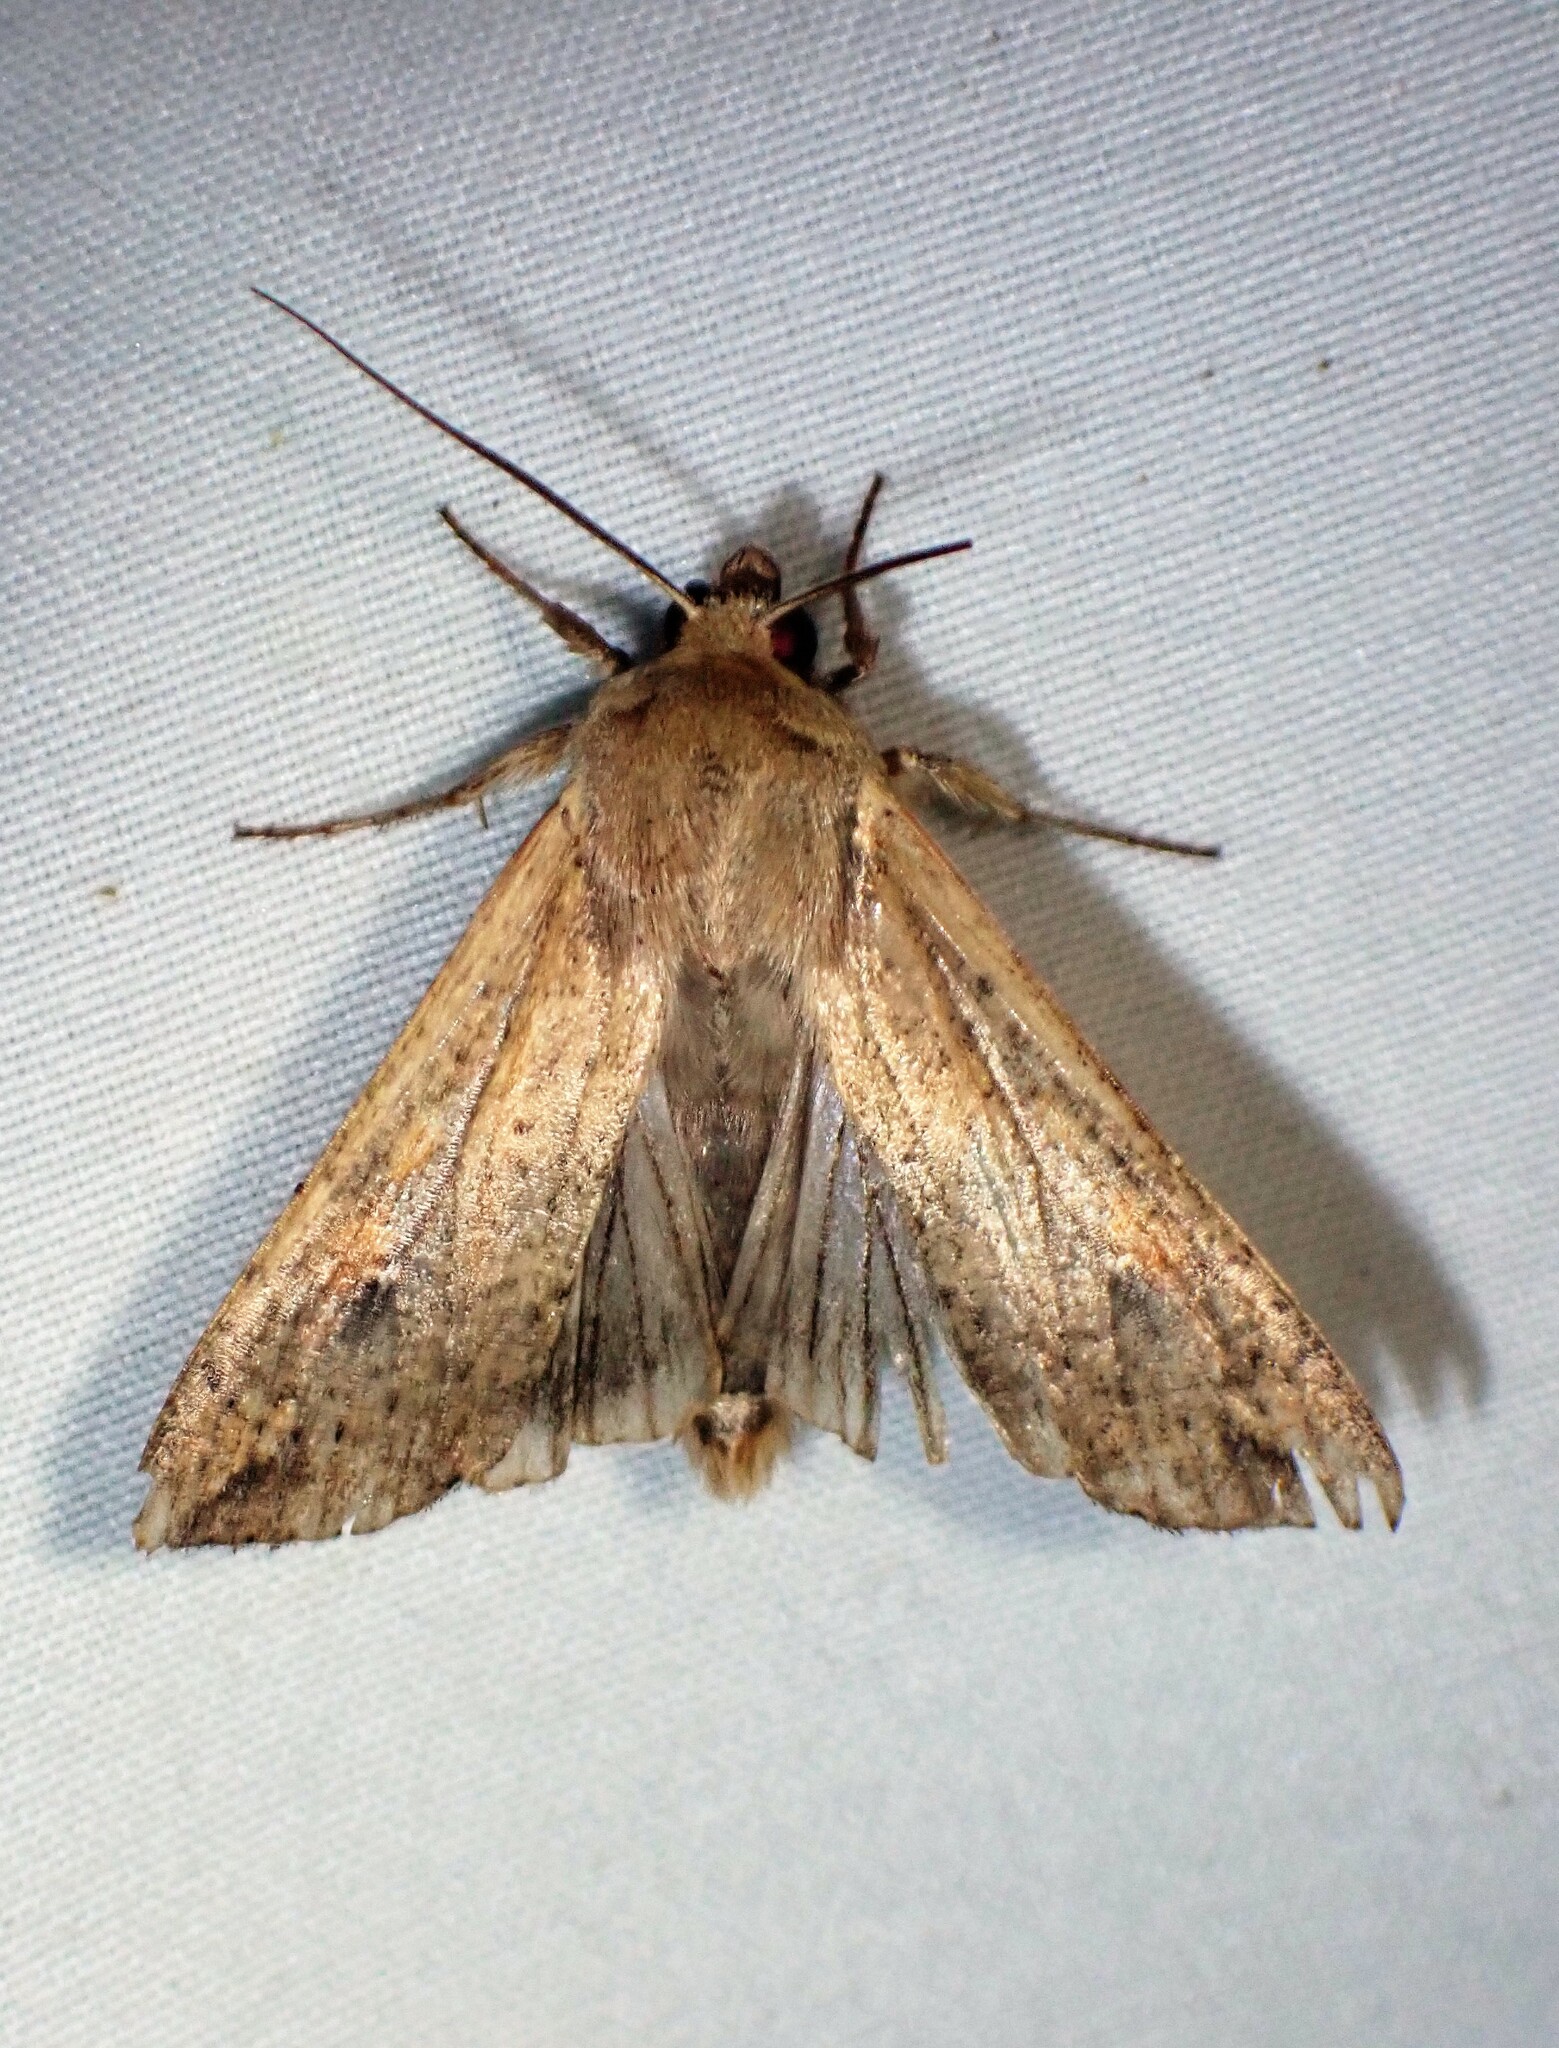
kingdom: Animalia
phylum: Arthropoda
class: Insecta
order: Lepidoptera
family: Noctuidae
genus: Mythimna
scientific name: Mythimna unipuncta
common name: White-speck
